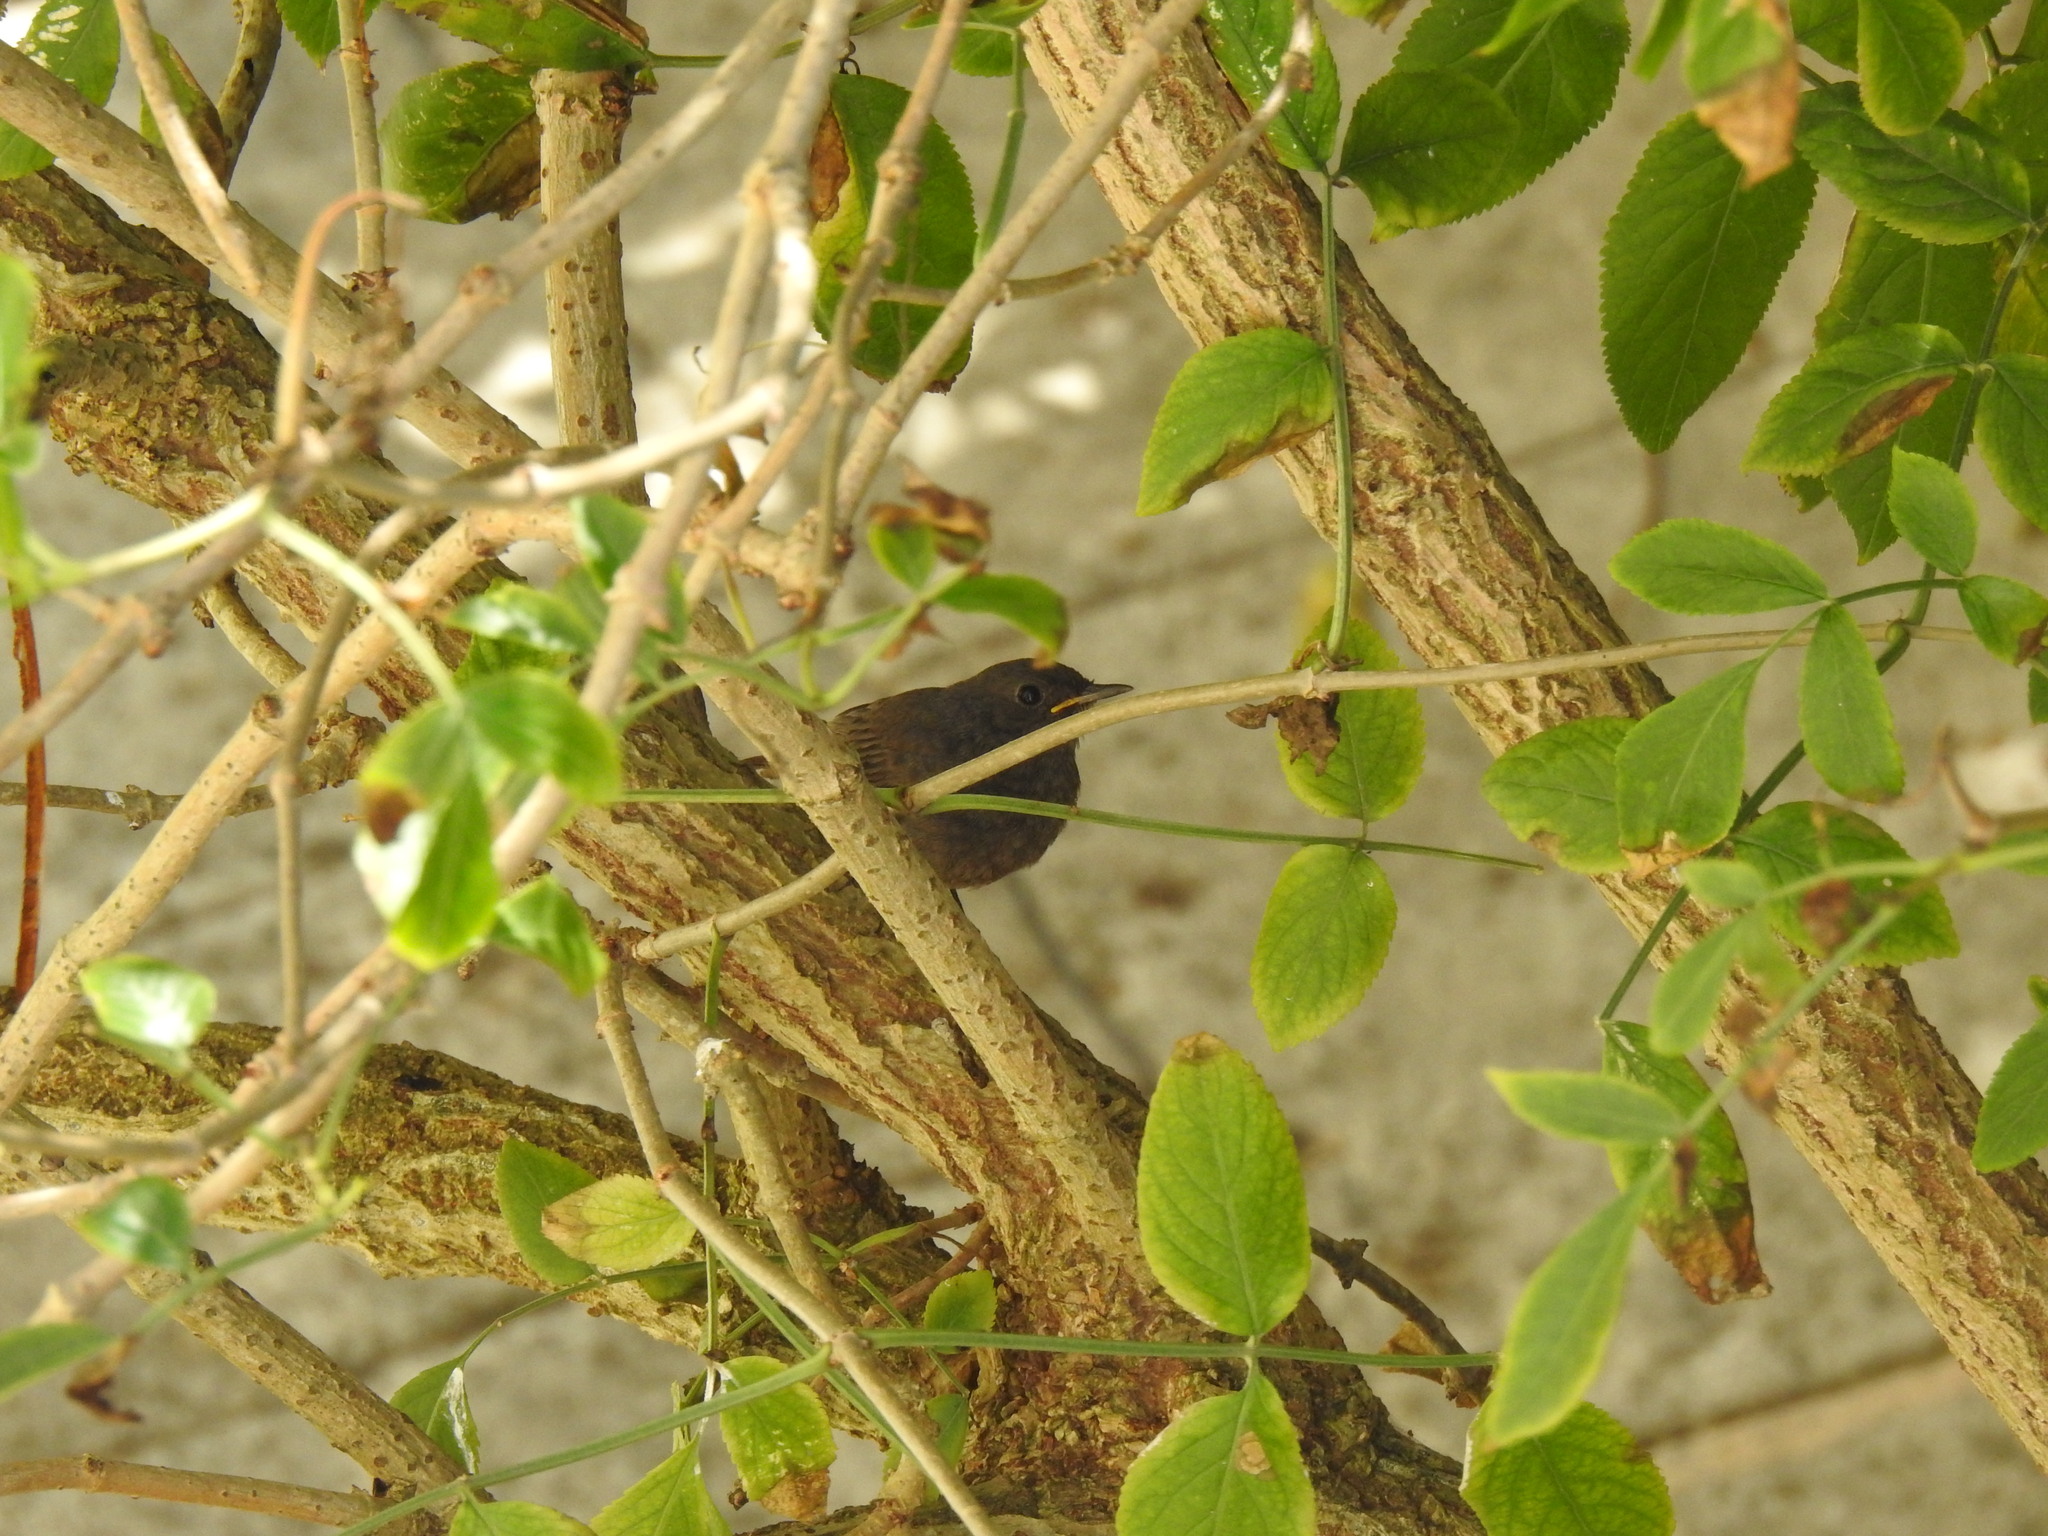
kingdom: Animalia
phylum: Chordata
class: Aves
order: Passeriformes
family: Muscicapidae
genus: Phoenicurus
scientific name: Phoenicurus ochruros
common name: Black redstart
